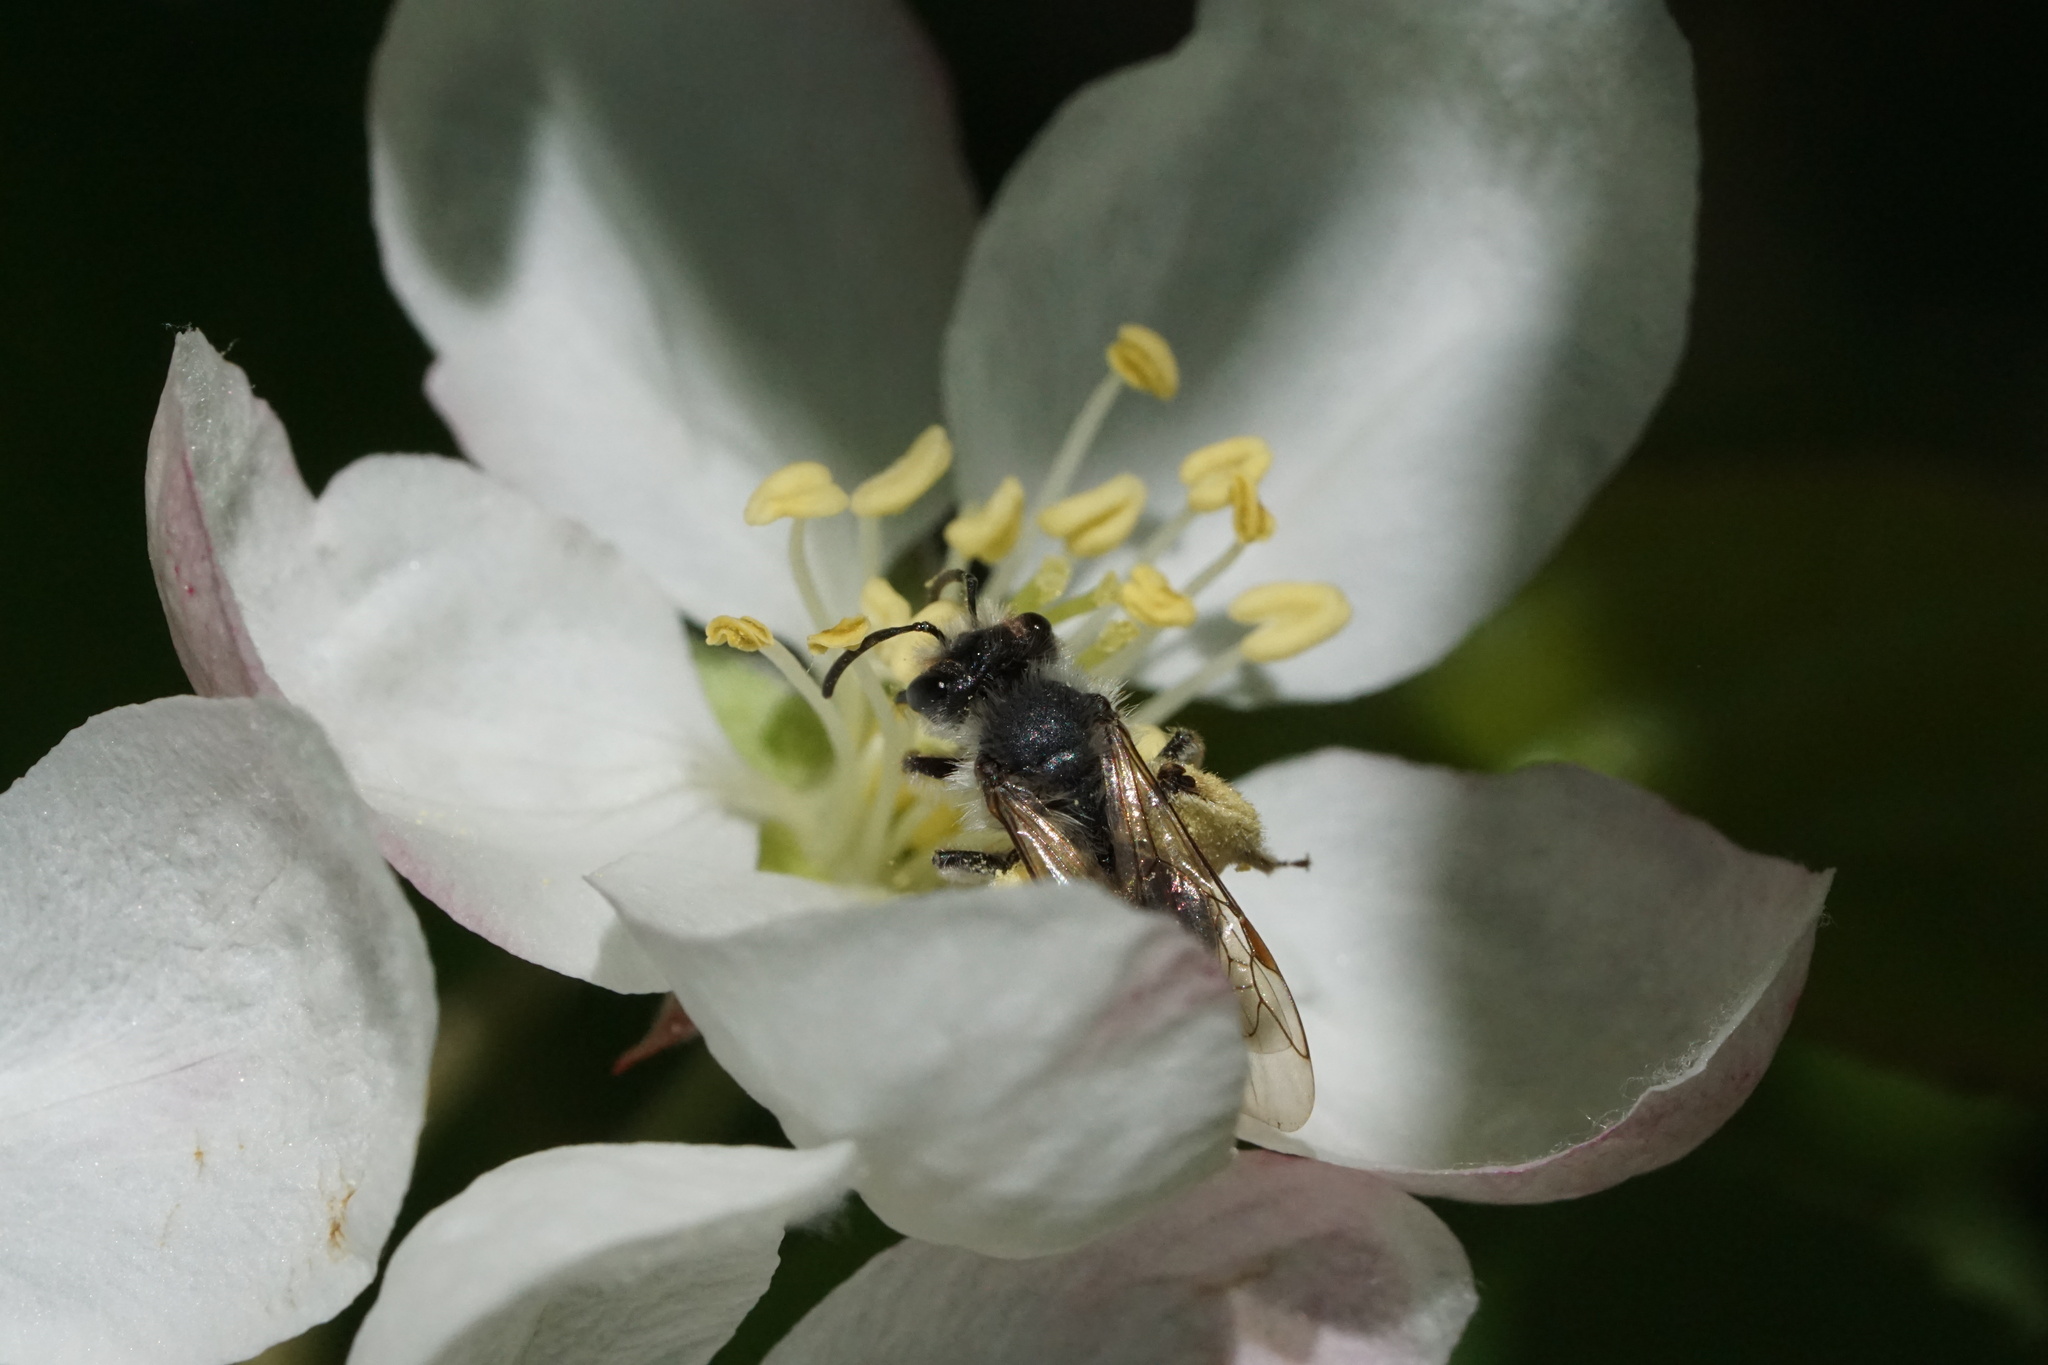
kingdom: Animalia
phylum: Arthropoda
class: Insecta
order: Hymenoptera
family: Andrenidae
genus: Andrena
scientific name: Andrena tridens
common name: Trident miner bee
